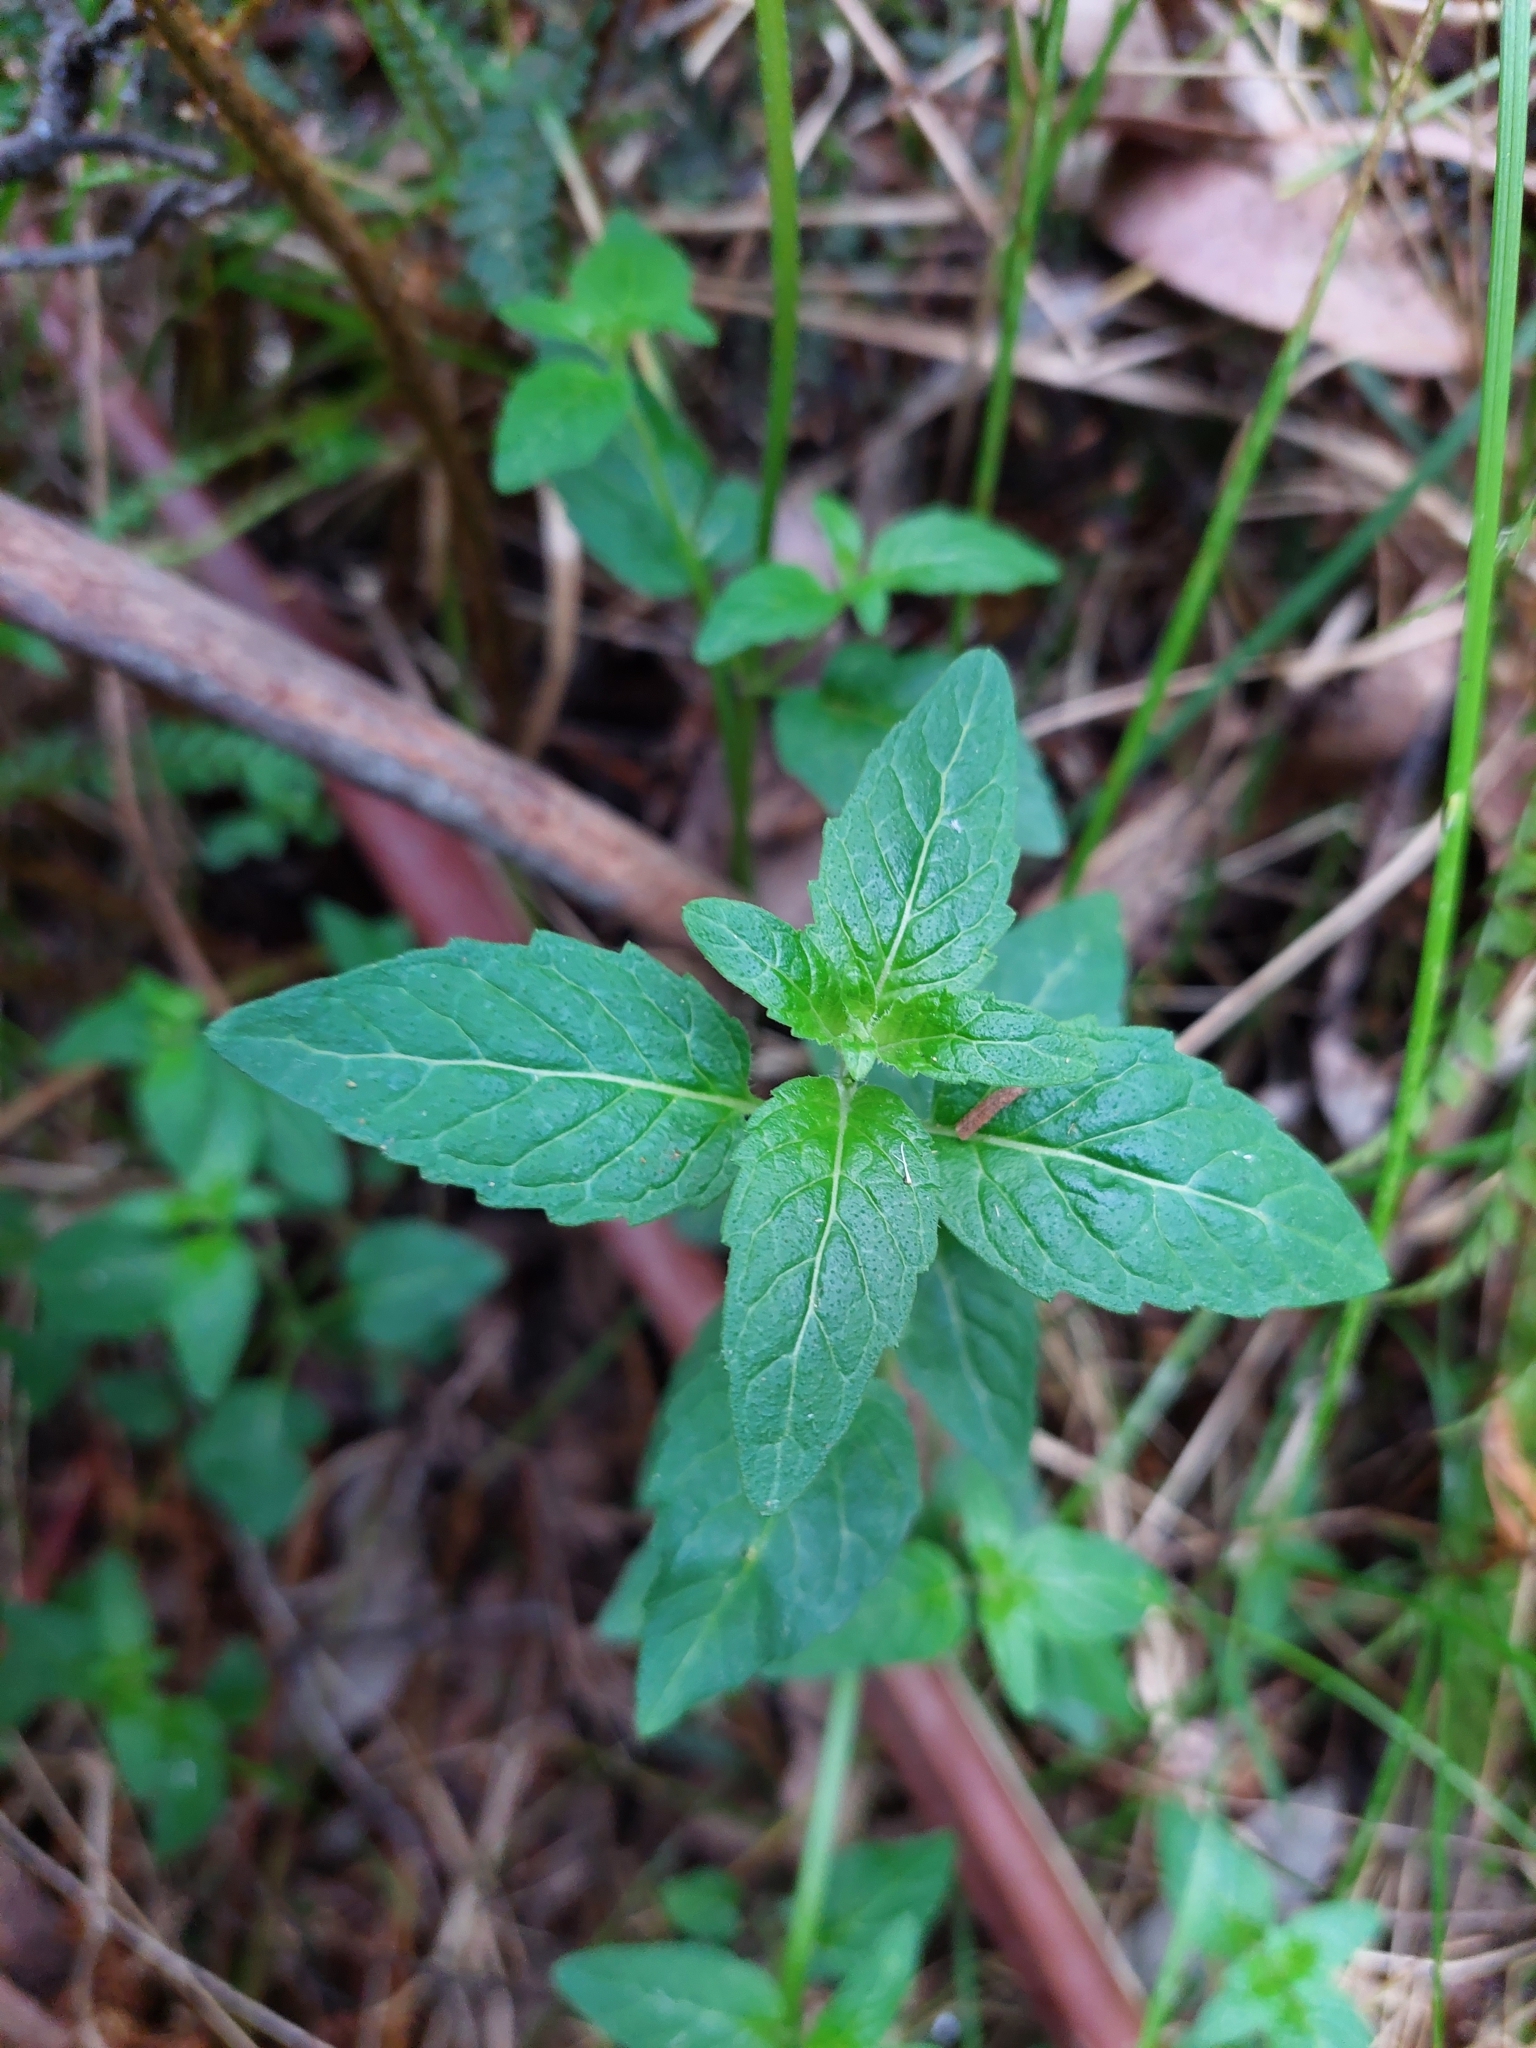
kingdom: Plantae
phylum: Tracheophyta
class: Magnoliopsida
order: Lamiales
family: Lamiaceae
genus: Mentha
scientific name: Mentha laxiflora
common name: Forest mint
